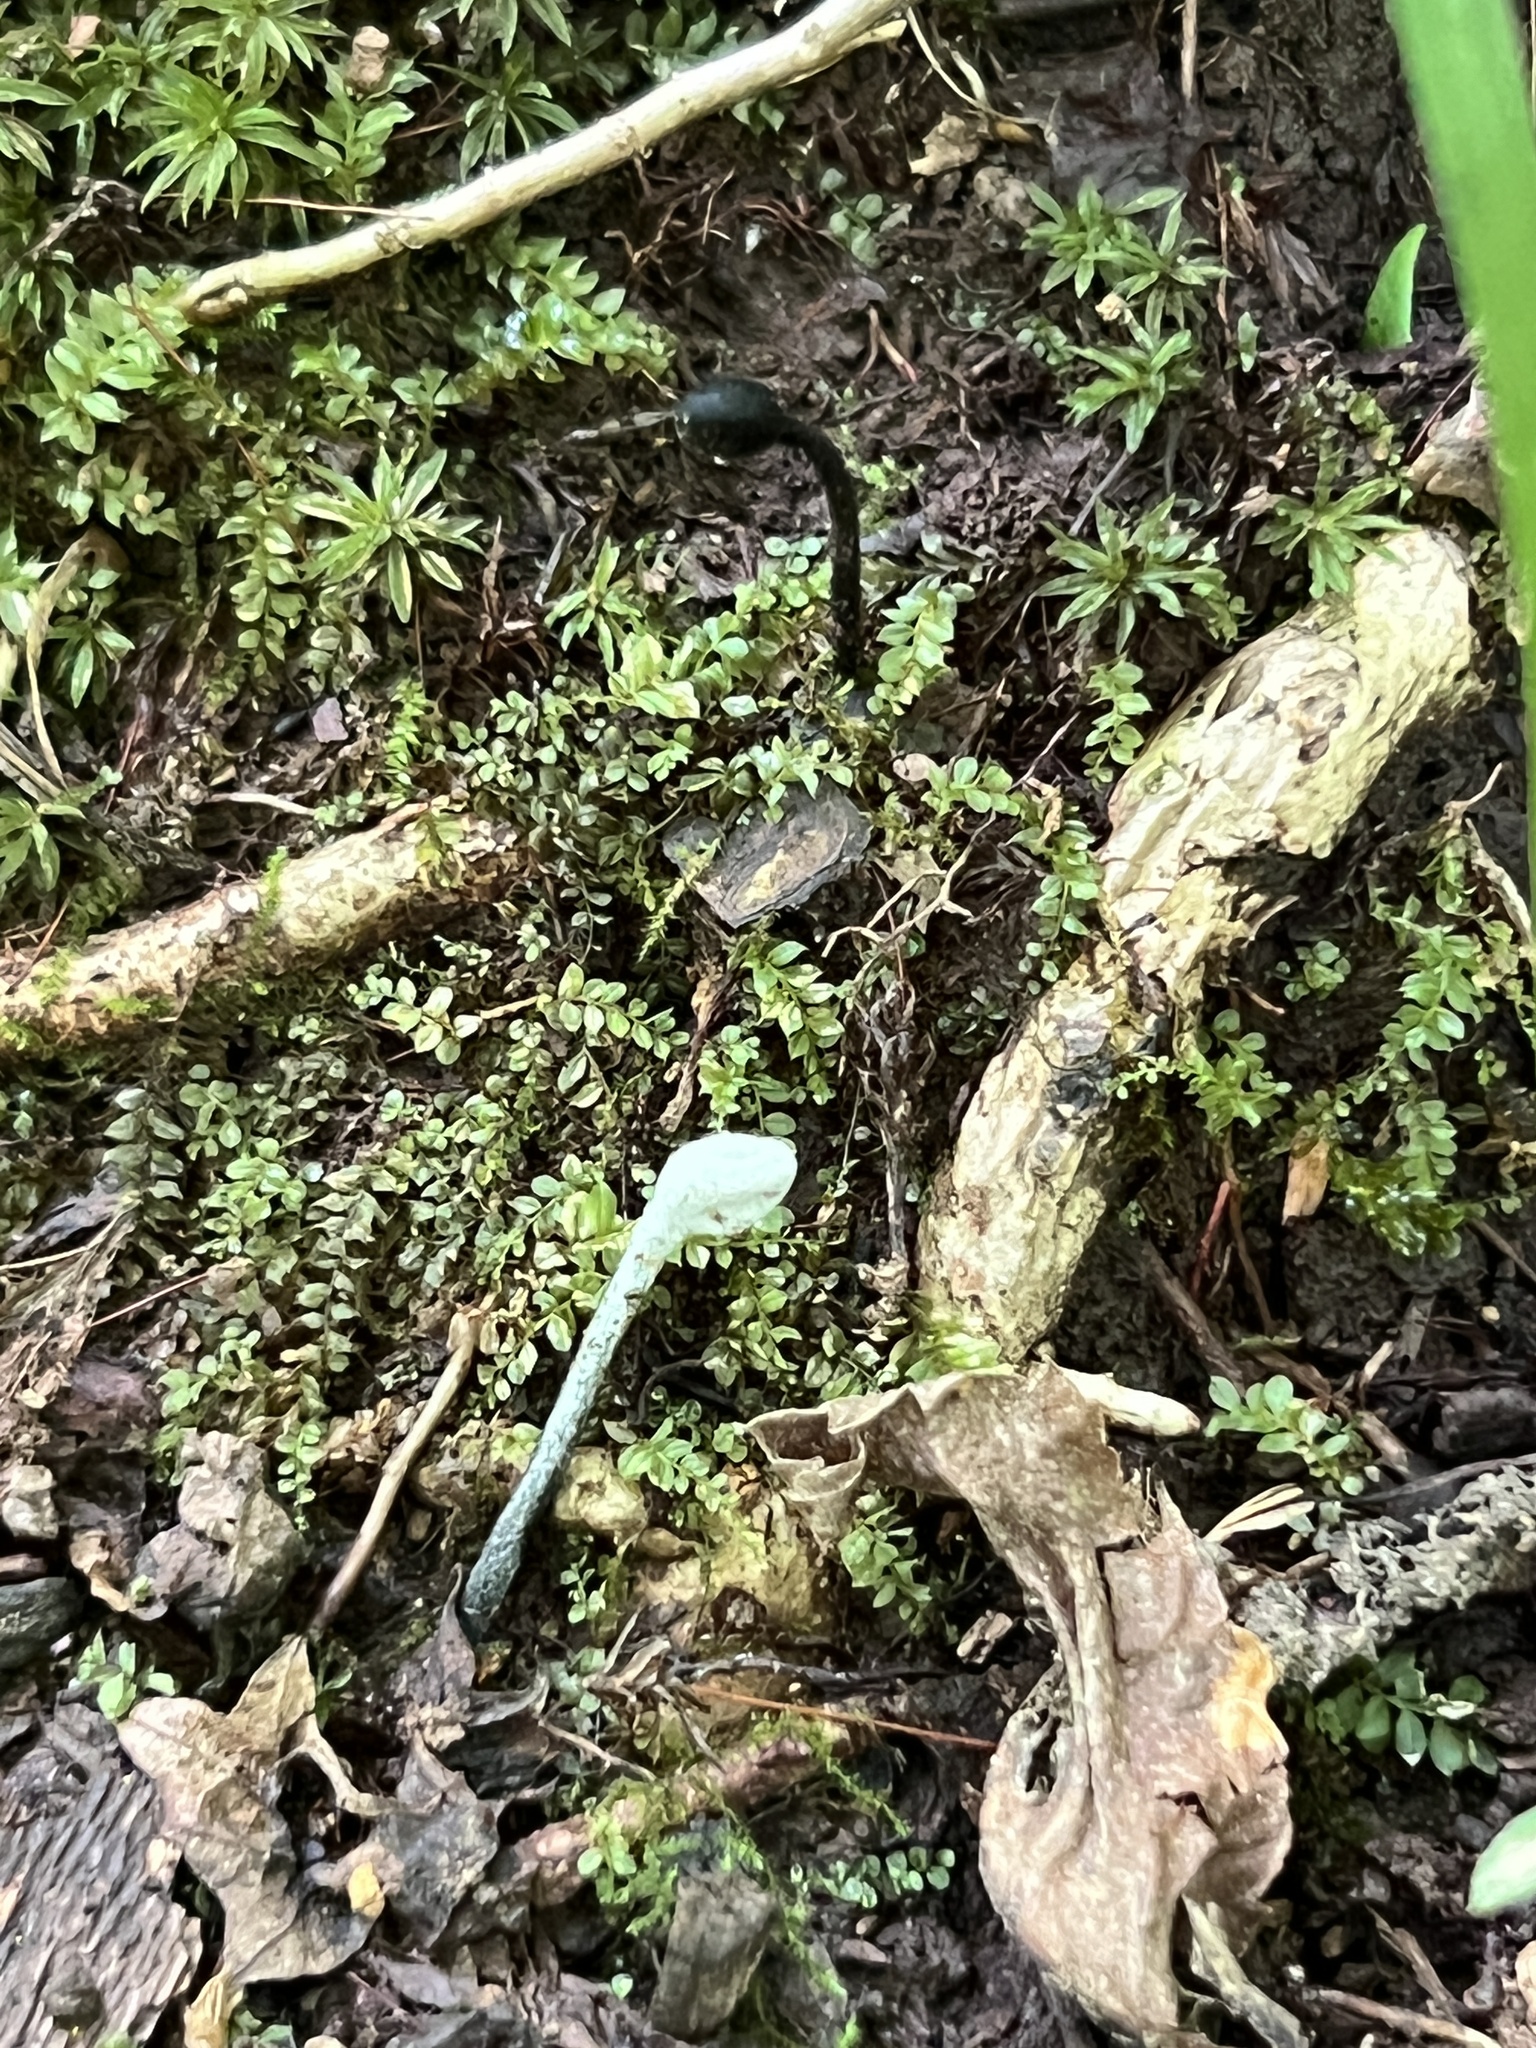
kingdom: Fungi
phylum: Ascomycota
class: Sordariomycetes
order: Hypocreales
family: Hypocreaceae
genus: Hypomyces
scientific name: Hypomyces papulasporae
